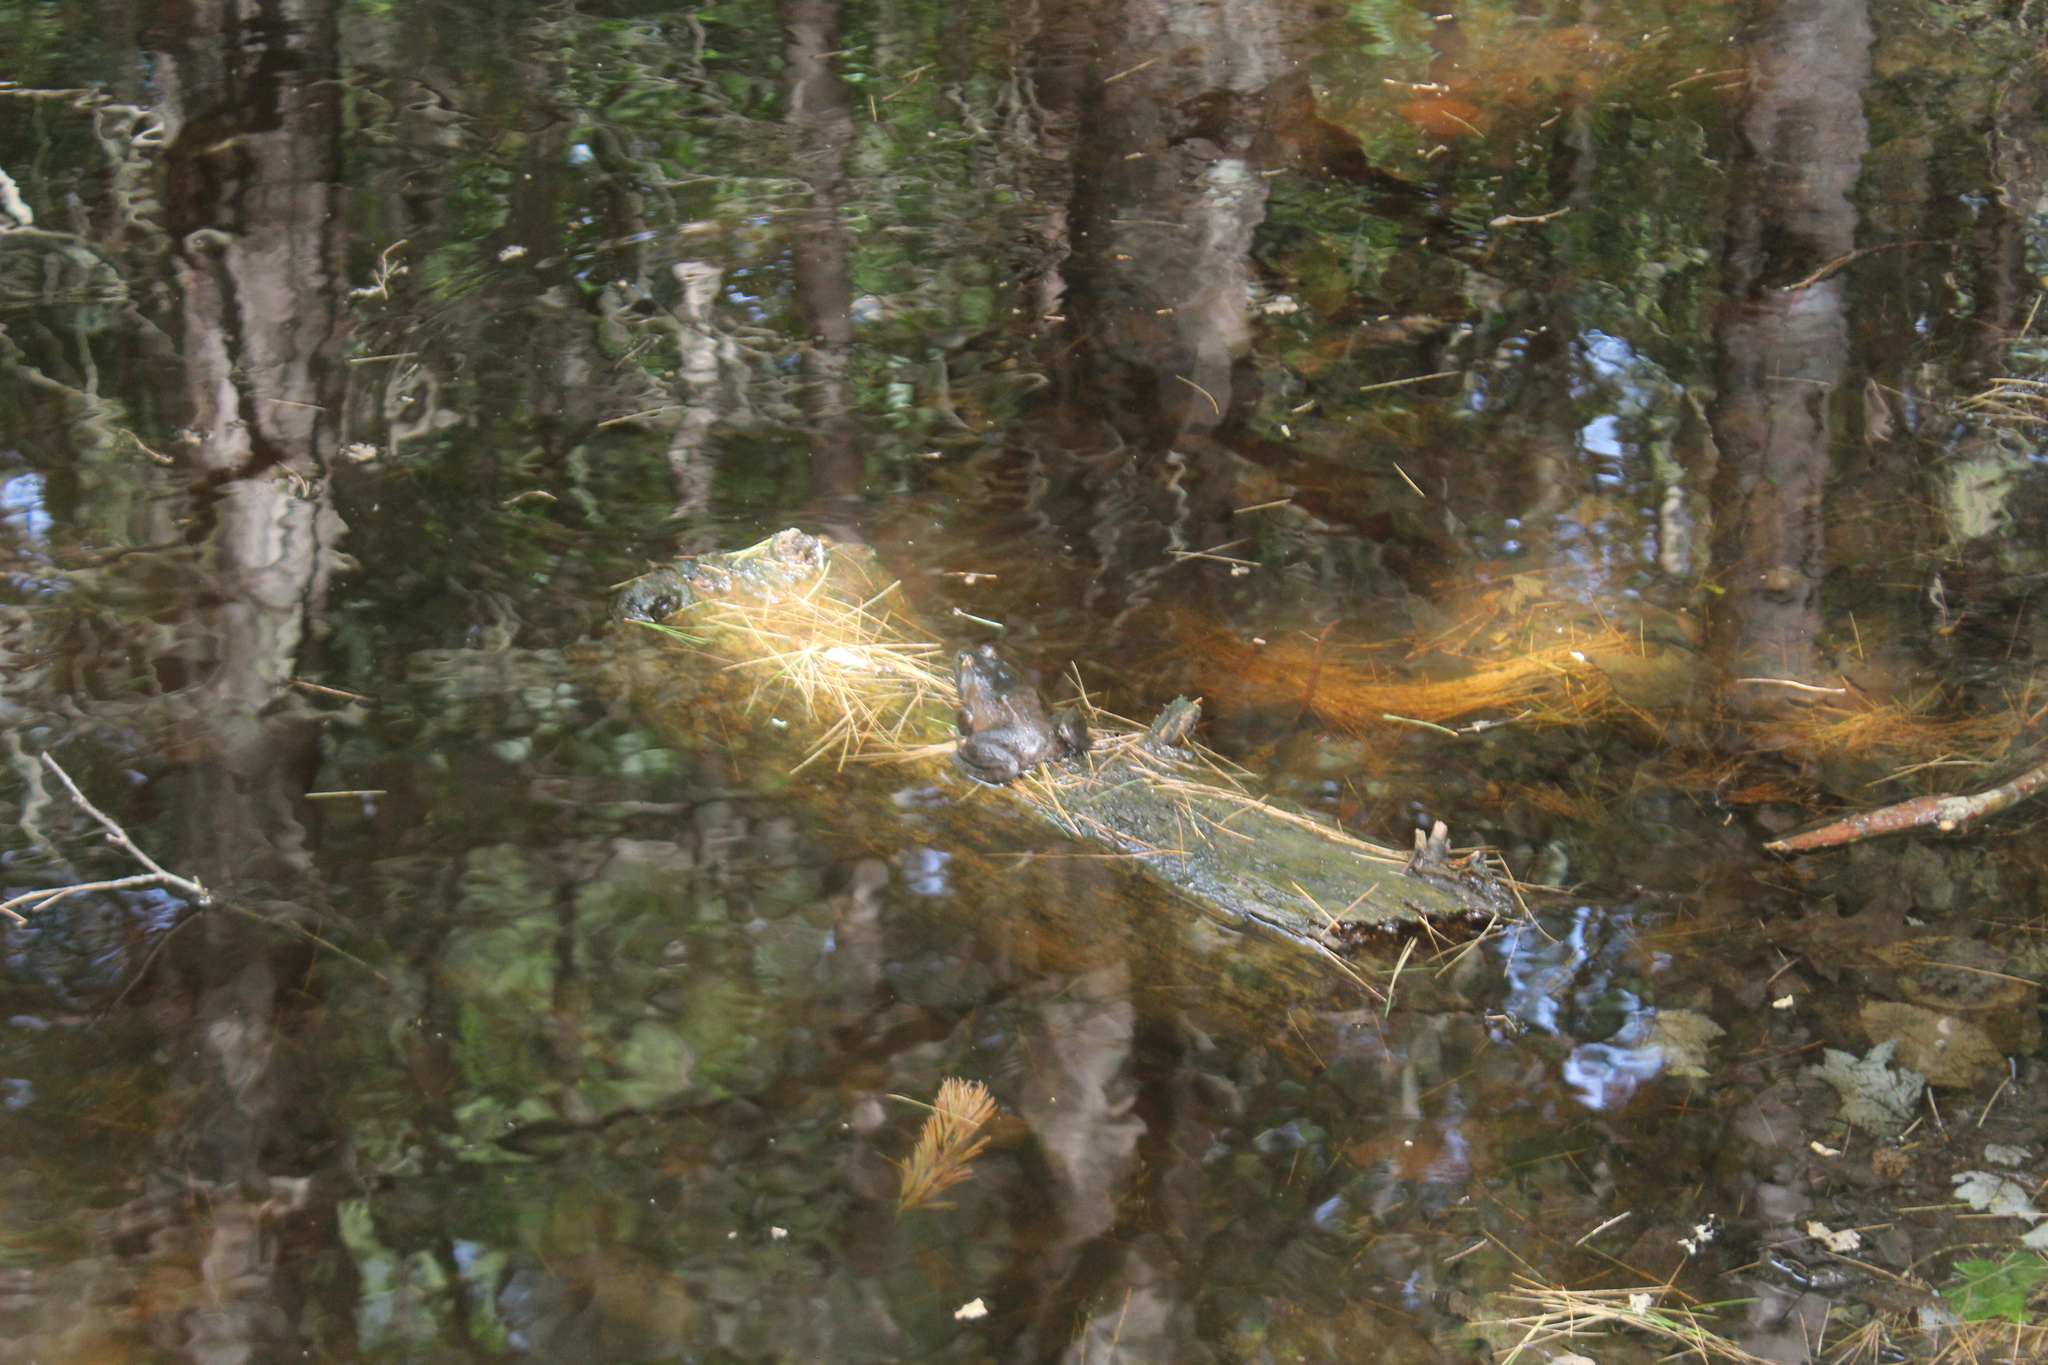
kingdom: Animalia
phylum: Chordata
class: Amphibia
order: Anura
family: Ranidae
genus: Lithobates
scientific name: Lithobates catesbeianus
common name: American bullfrog
